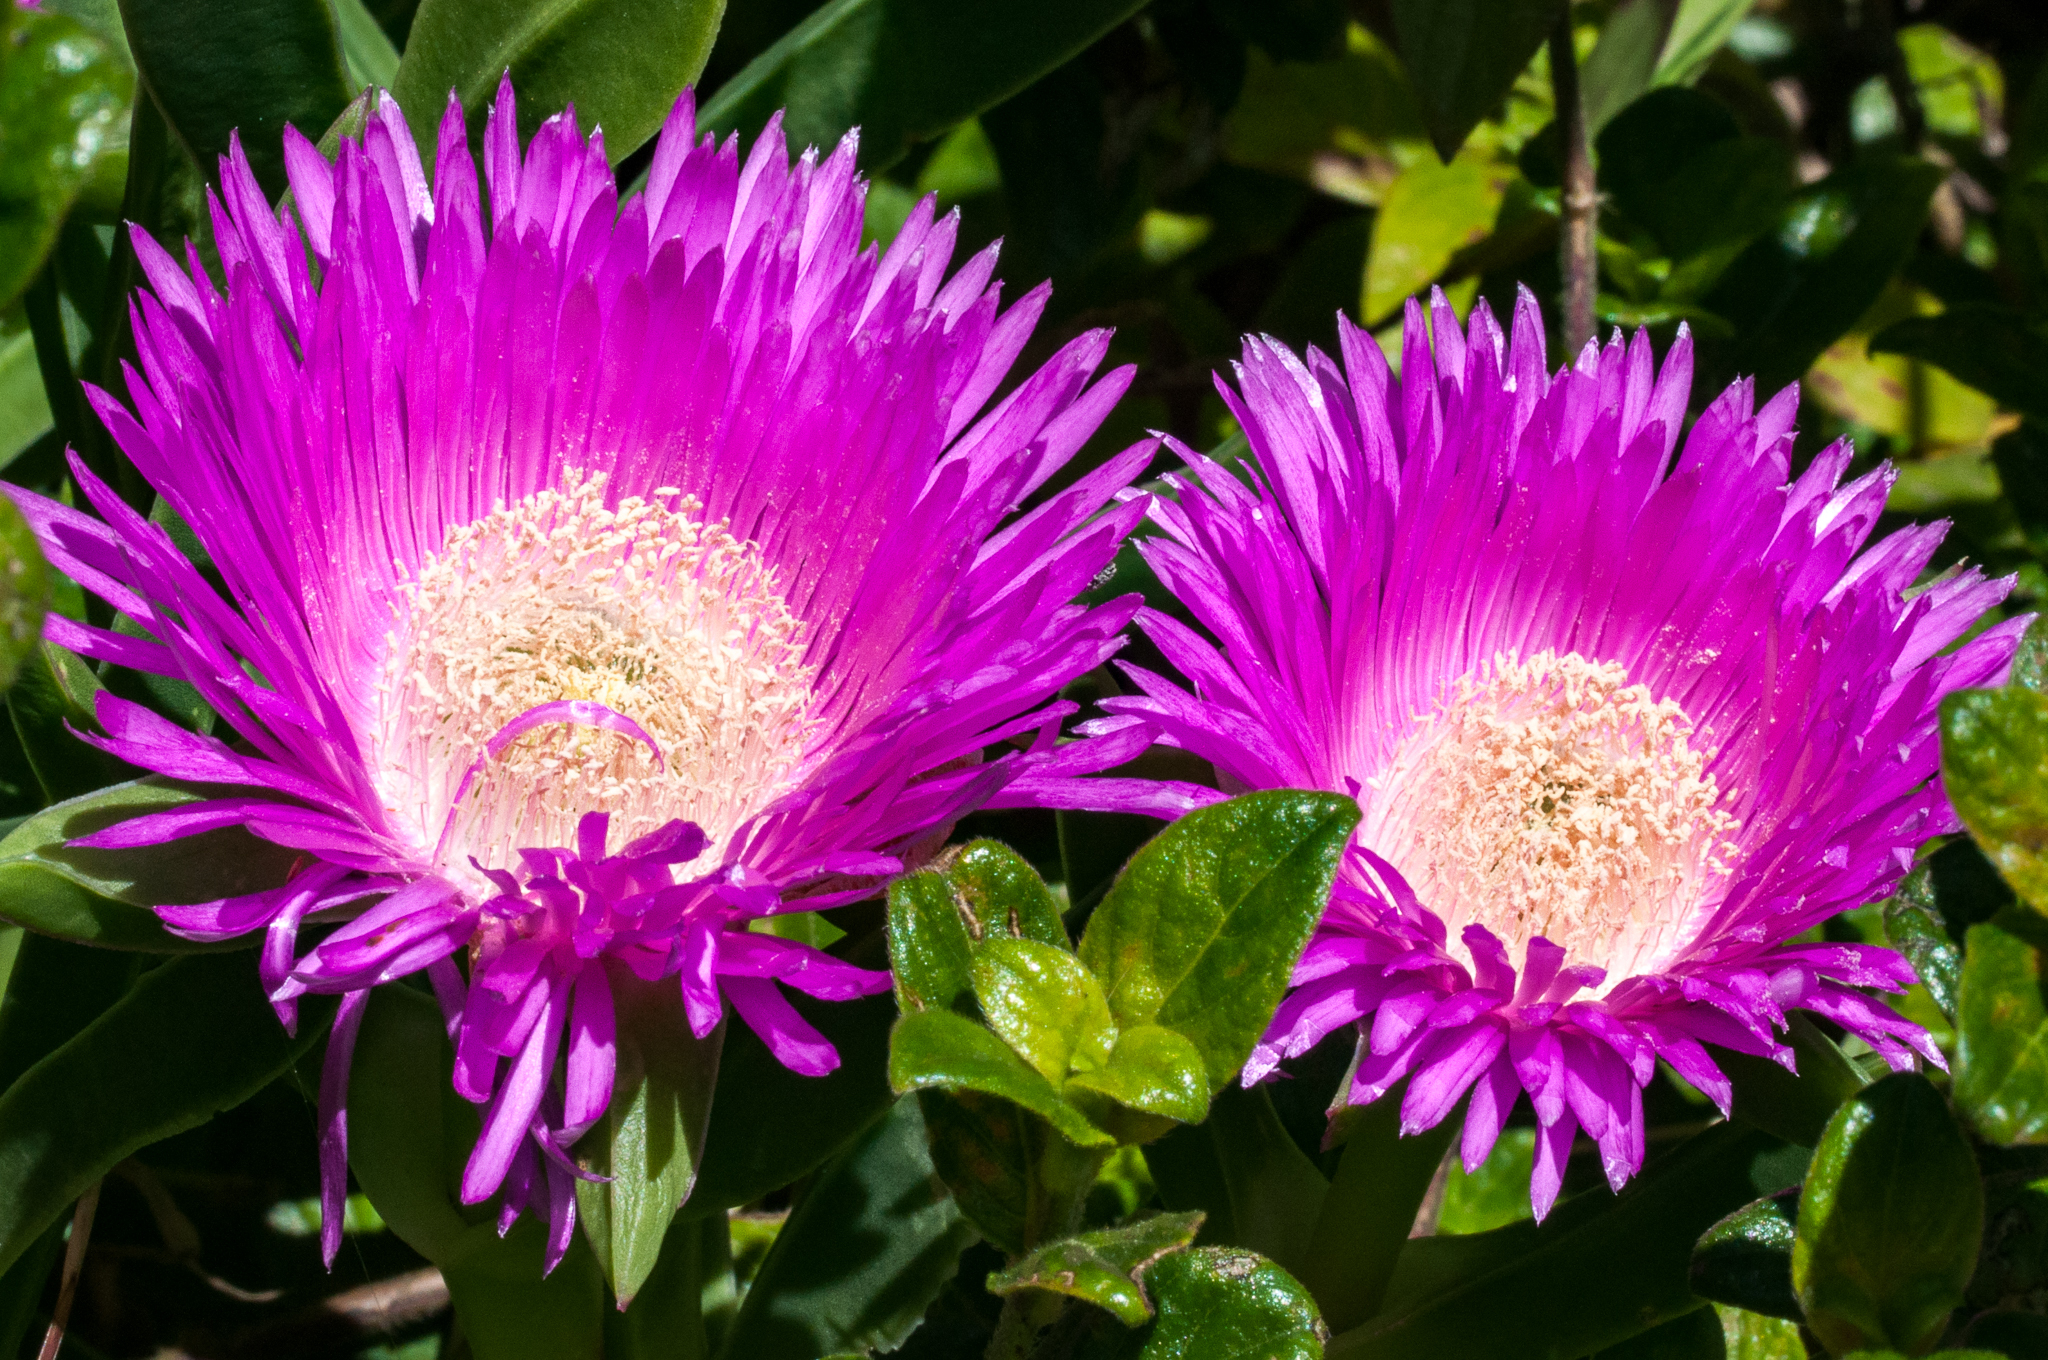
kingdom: Plantae
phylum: Tracheophyta
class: Magnoliopsida
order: Caryophyllales
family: Aizoaceae
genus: Carpobrotus
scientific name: Carpobrotus acinaciformis
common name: Sally-my-handsome
